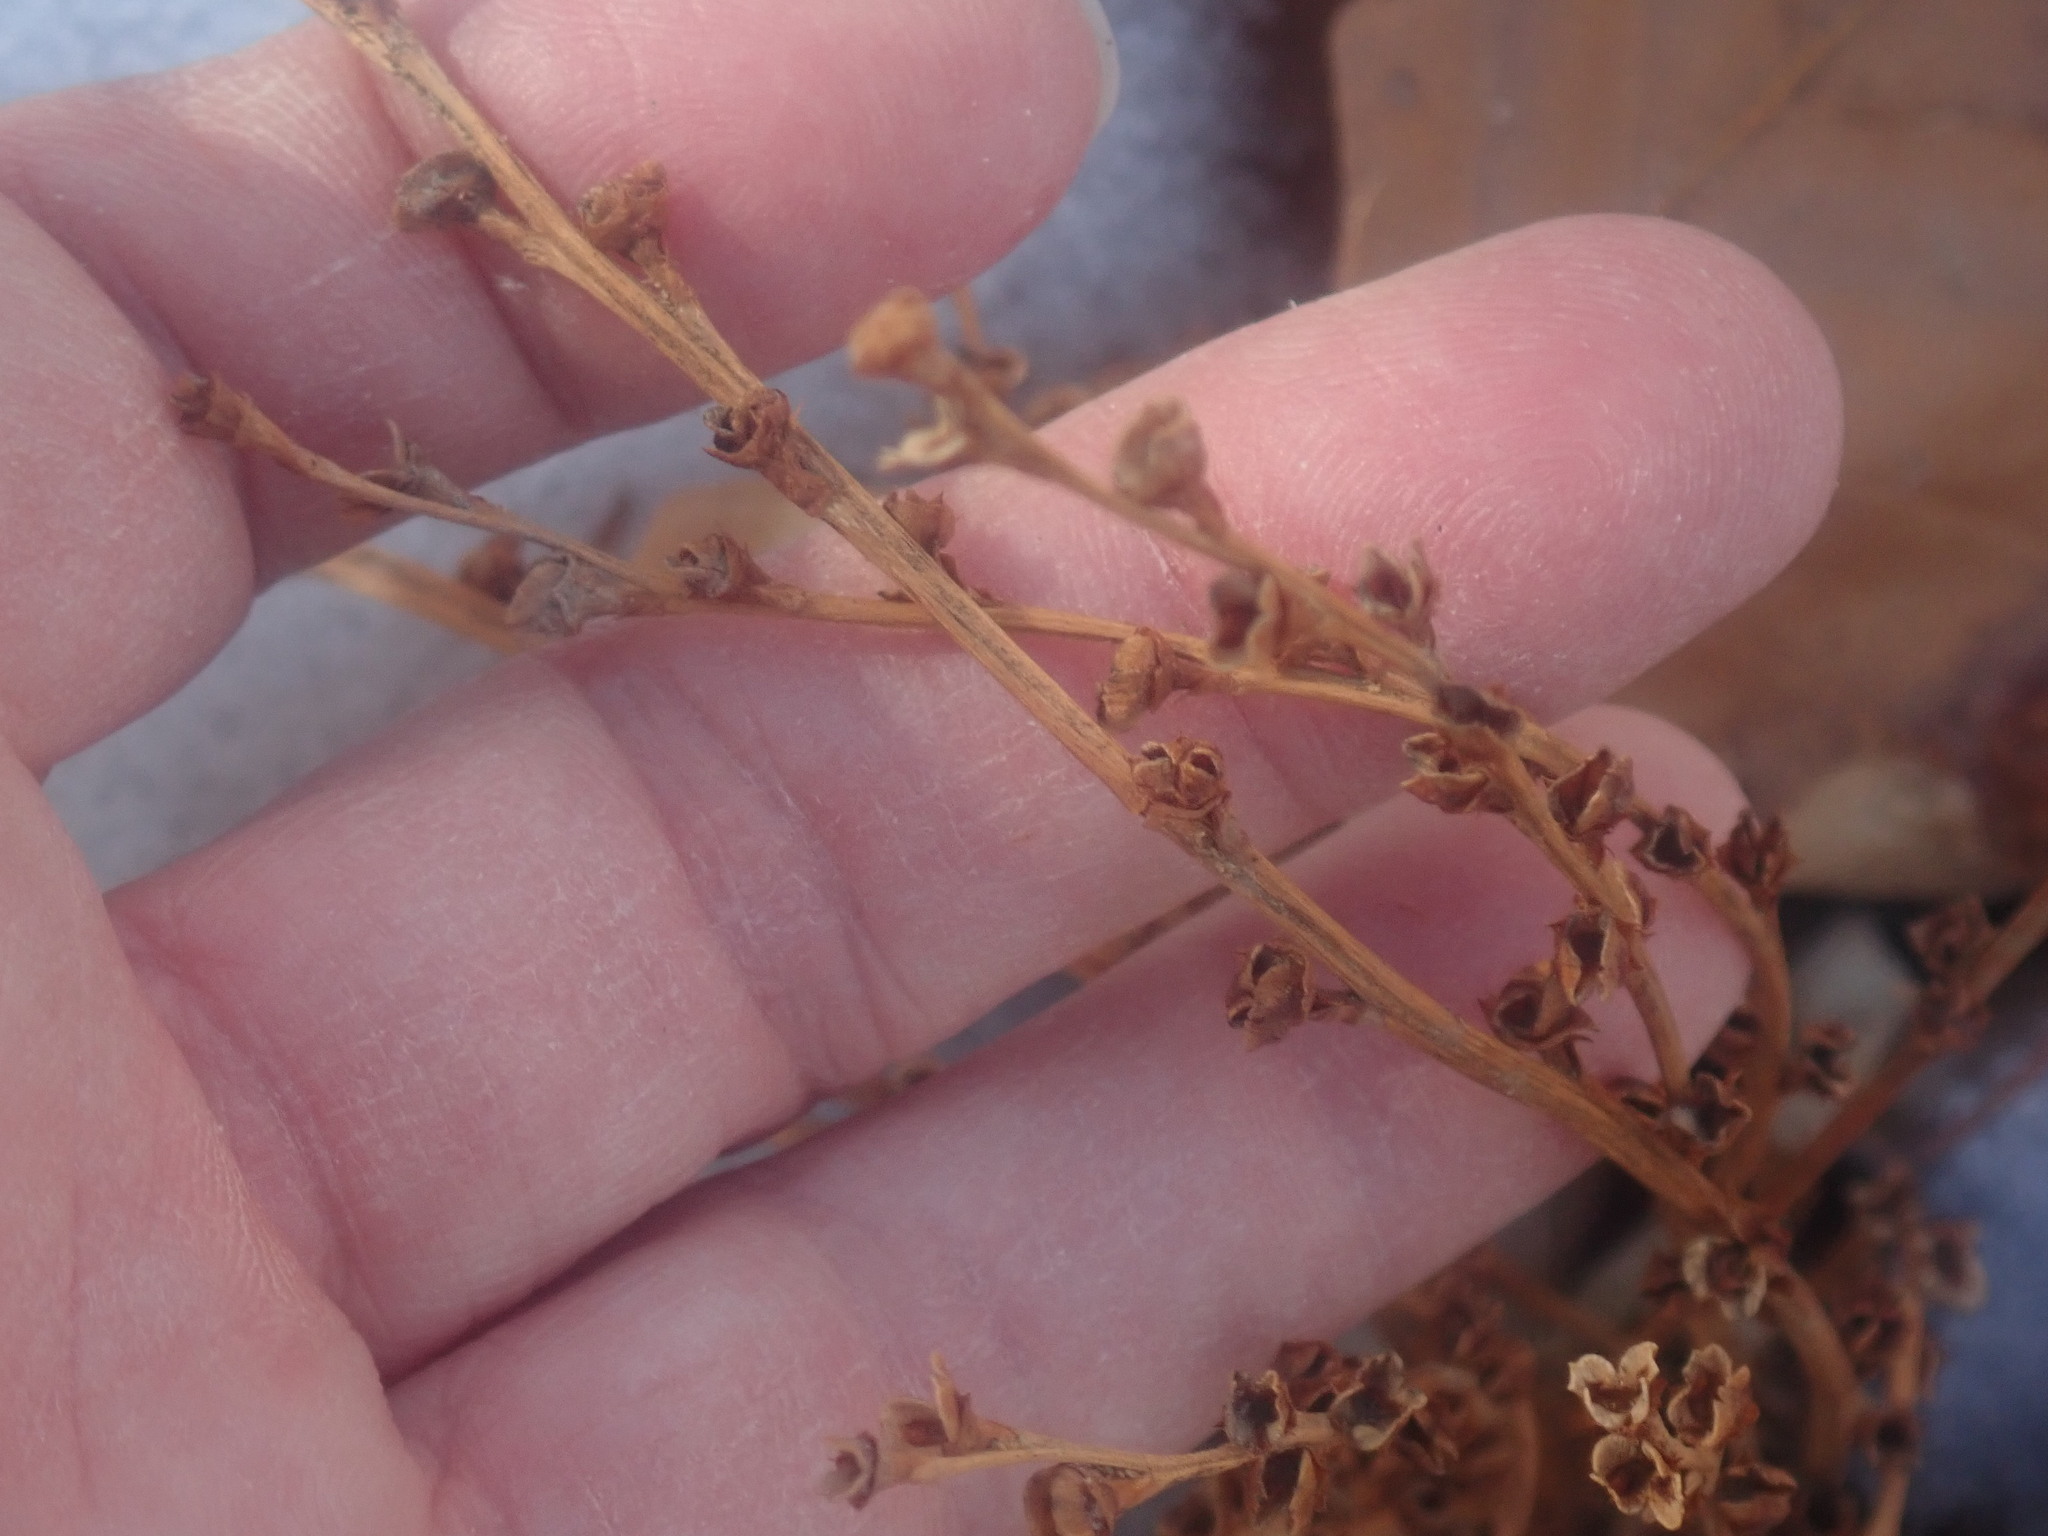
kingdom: Plantae
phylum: Tracheophyta
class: Magnoliopsida
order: Lamiales
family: Orobanchaceae
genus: Epifagus
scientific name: Epifagus virginiana
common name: Beechdrops
